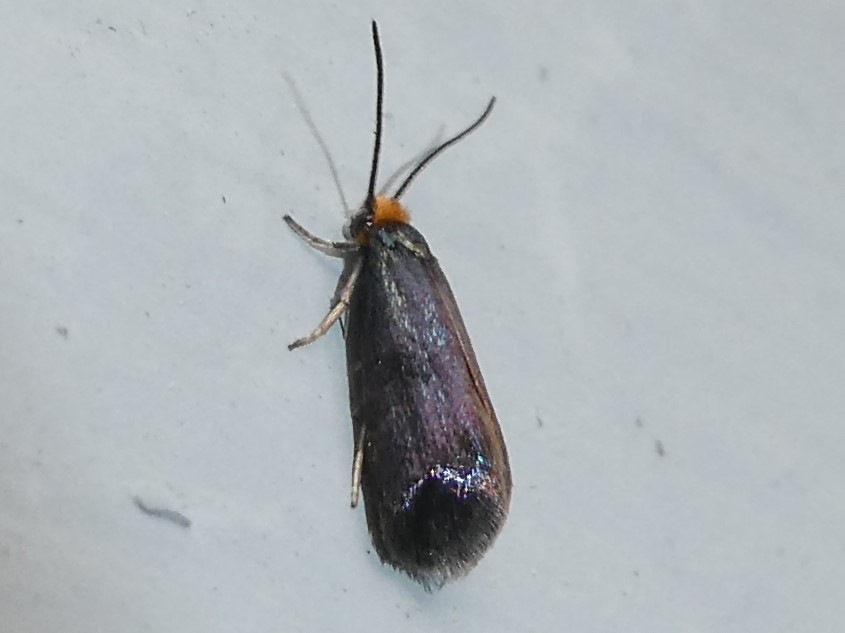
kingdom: Animalia
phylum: Arthropoda
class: Insecta
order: Lepidoptera
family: Incurvariidae
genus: Paraclemensia
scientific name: Paraclemensia acerifoliella
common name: Maple leafcutter
